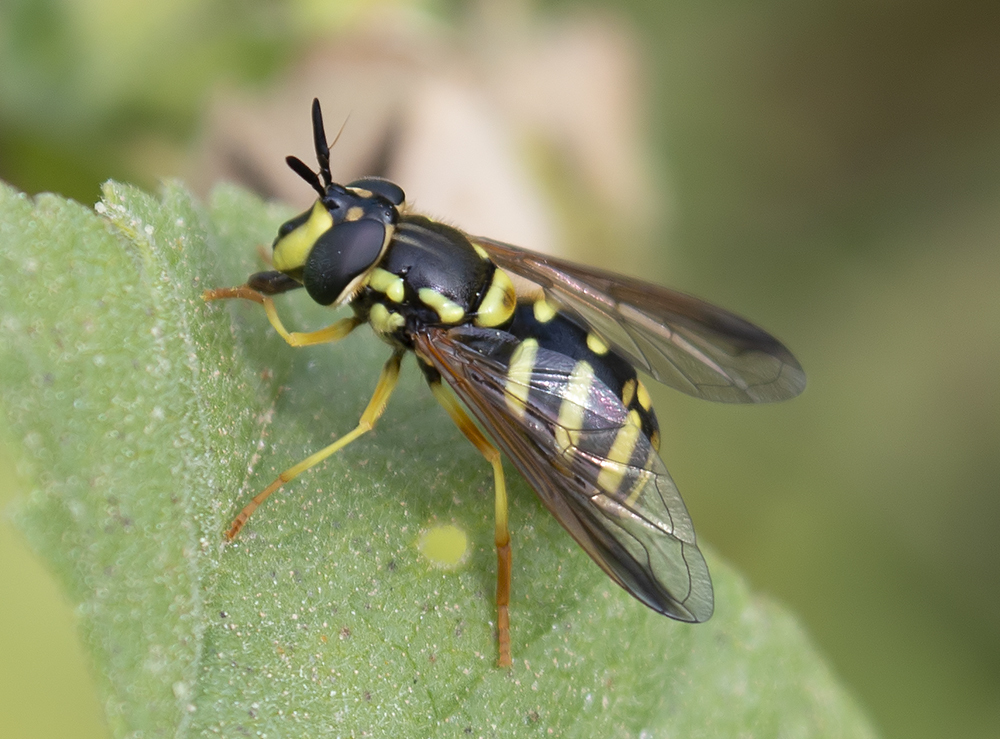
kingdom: Animalia
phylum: Arthropoda
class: Insecta
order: Diptera
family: Syrphidae
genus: Chrysotoxum
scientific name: Chrysotoxum intermedium
